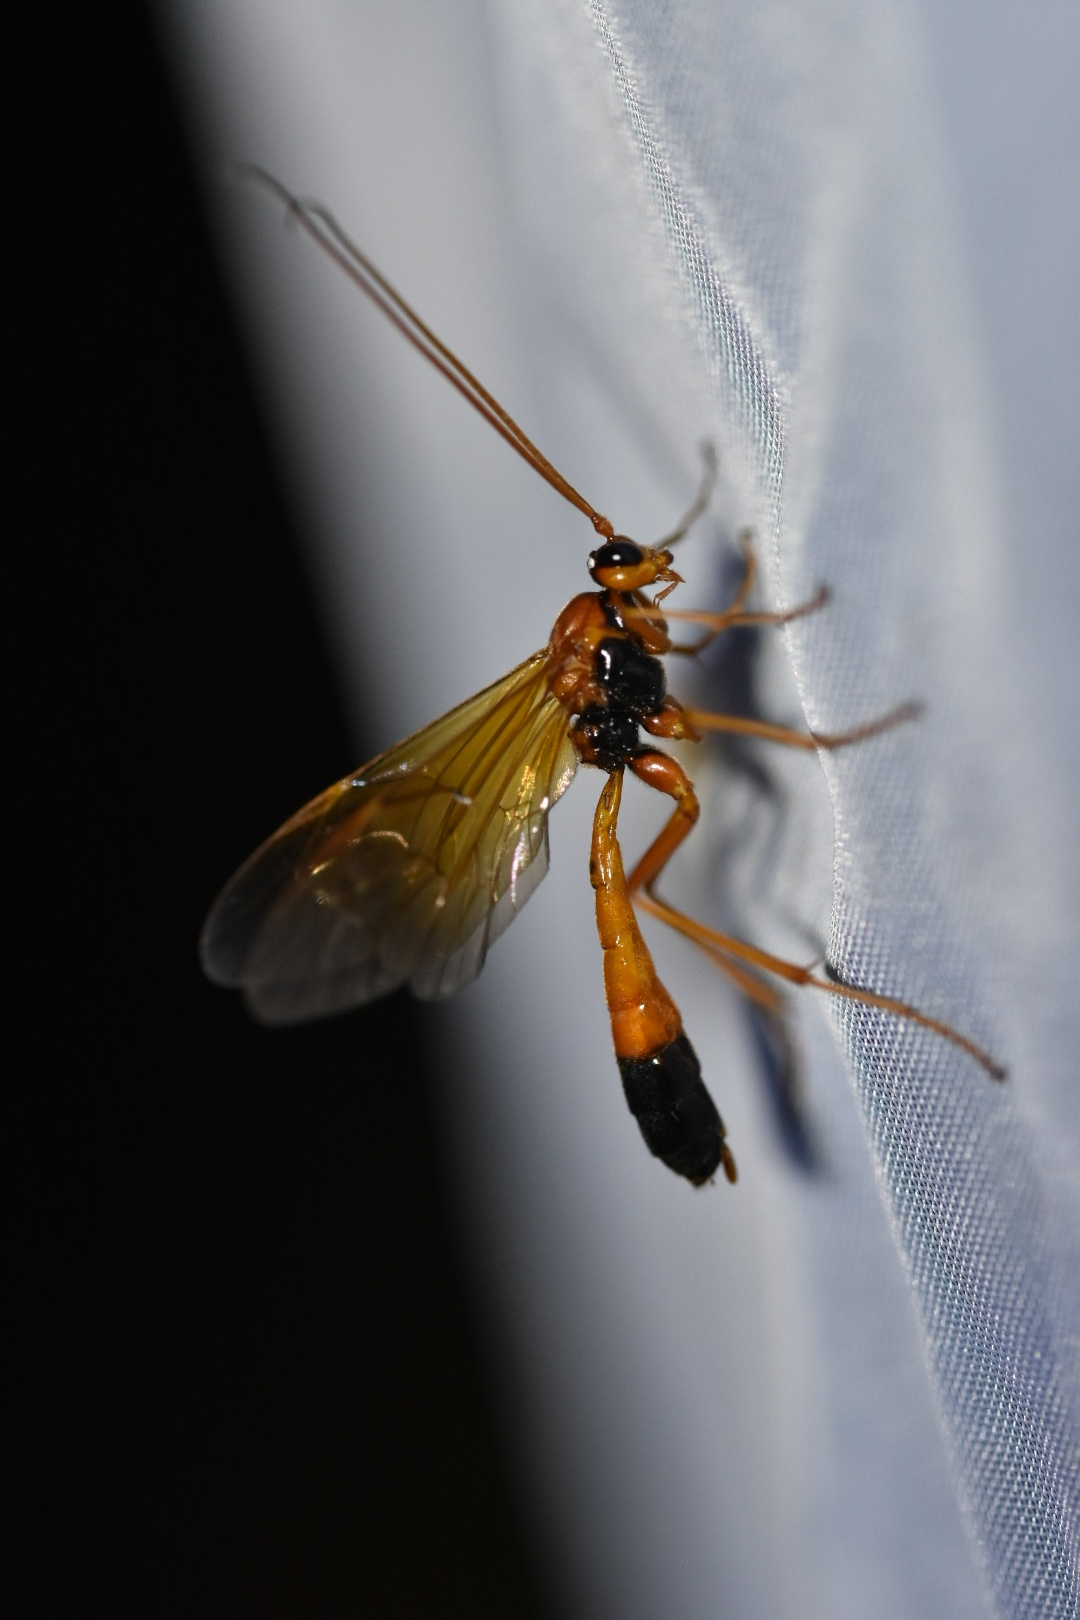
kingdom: Animalia
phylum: Arthropoda
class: Insecta
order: Hymenoptera
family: Ichneumonidae
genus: Opheltes
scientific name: Opheltes glaucopterus
